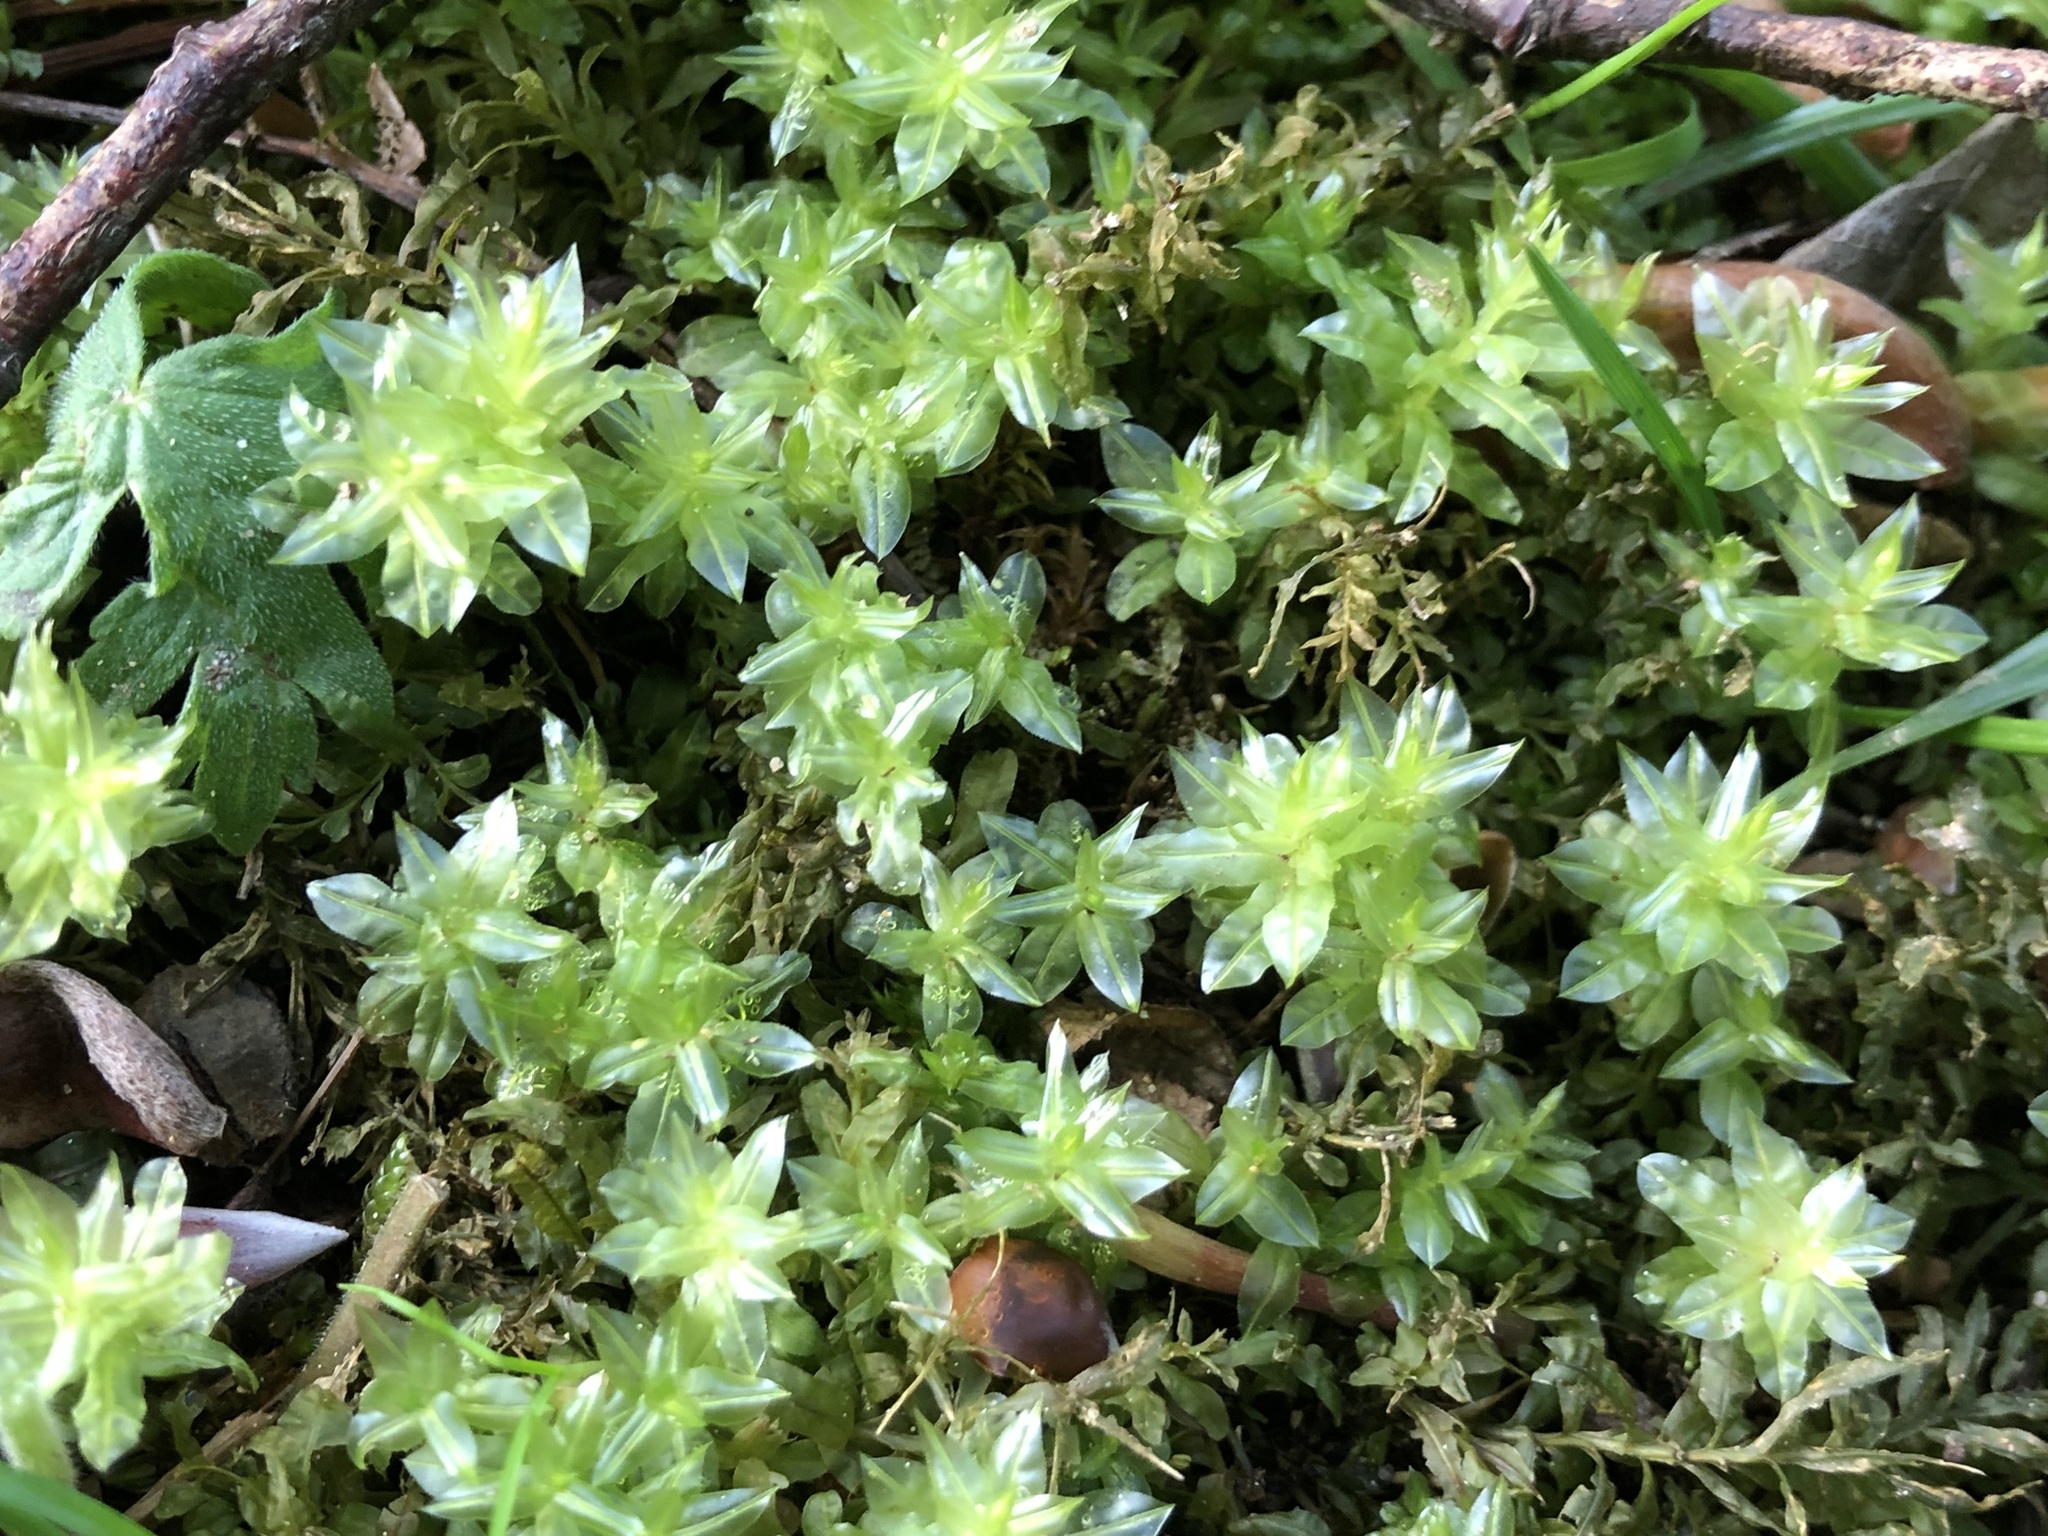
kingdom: Plantae
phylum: Bryophyta
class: Bryopsida
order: Bryales
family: Mniaceae
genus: Plagiomnium
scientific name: Plagiomnium undulatum
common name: Hart's-tongue thyme-moss
